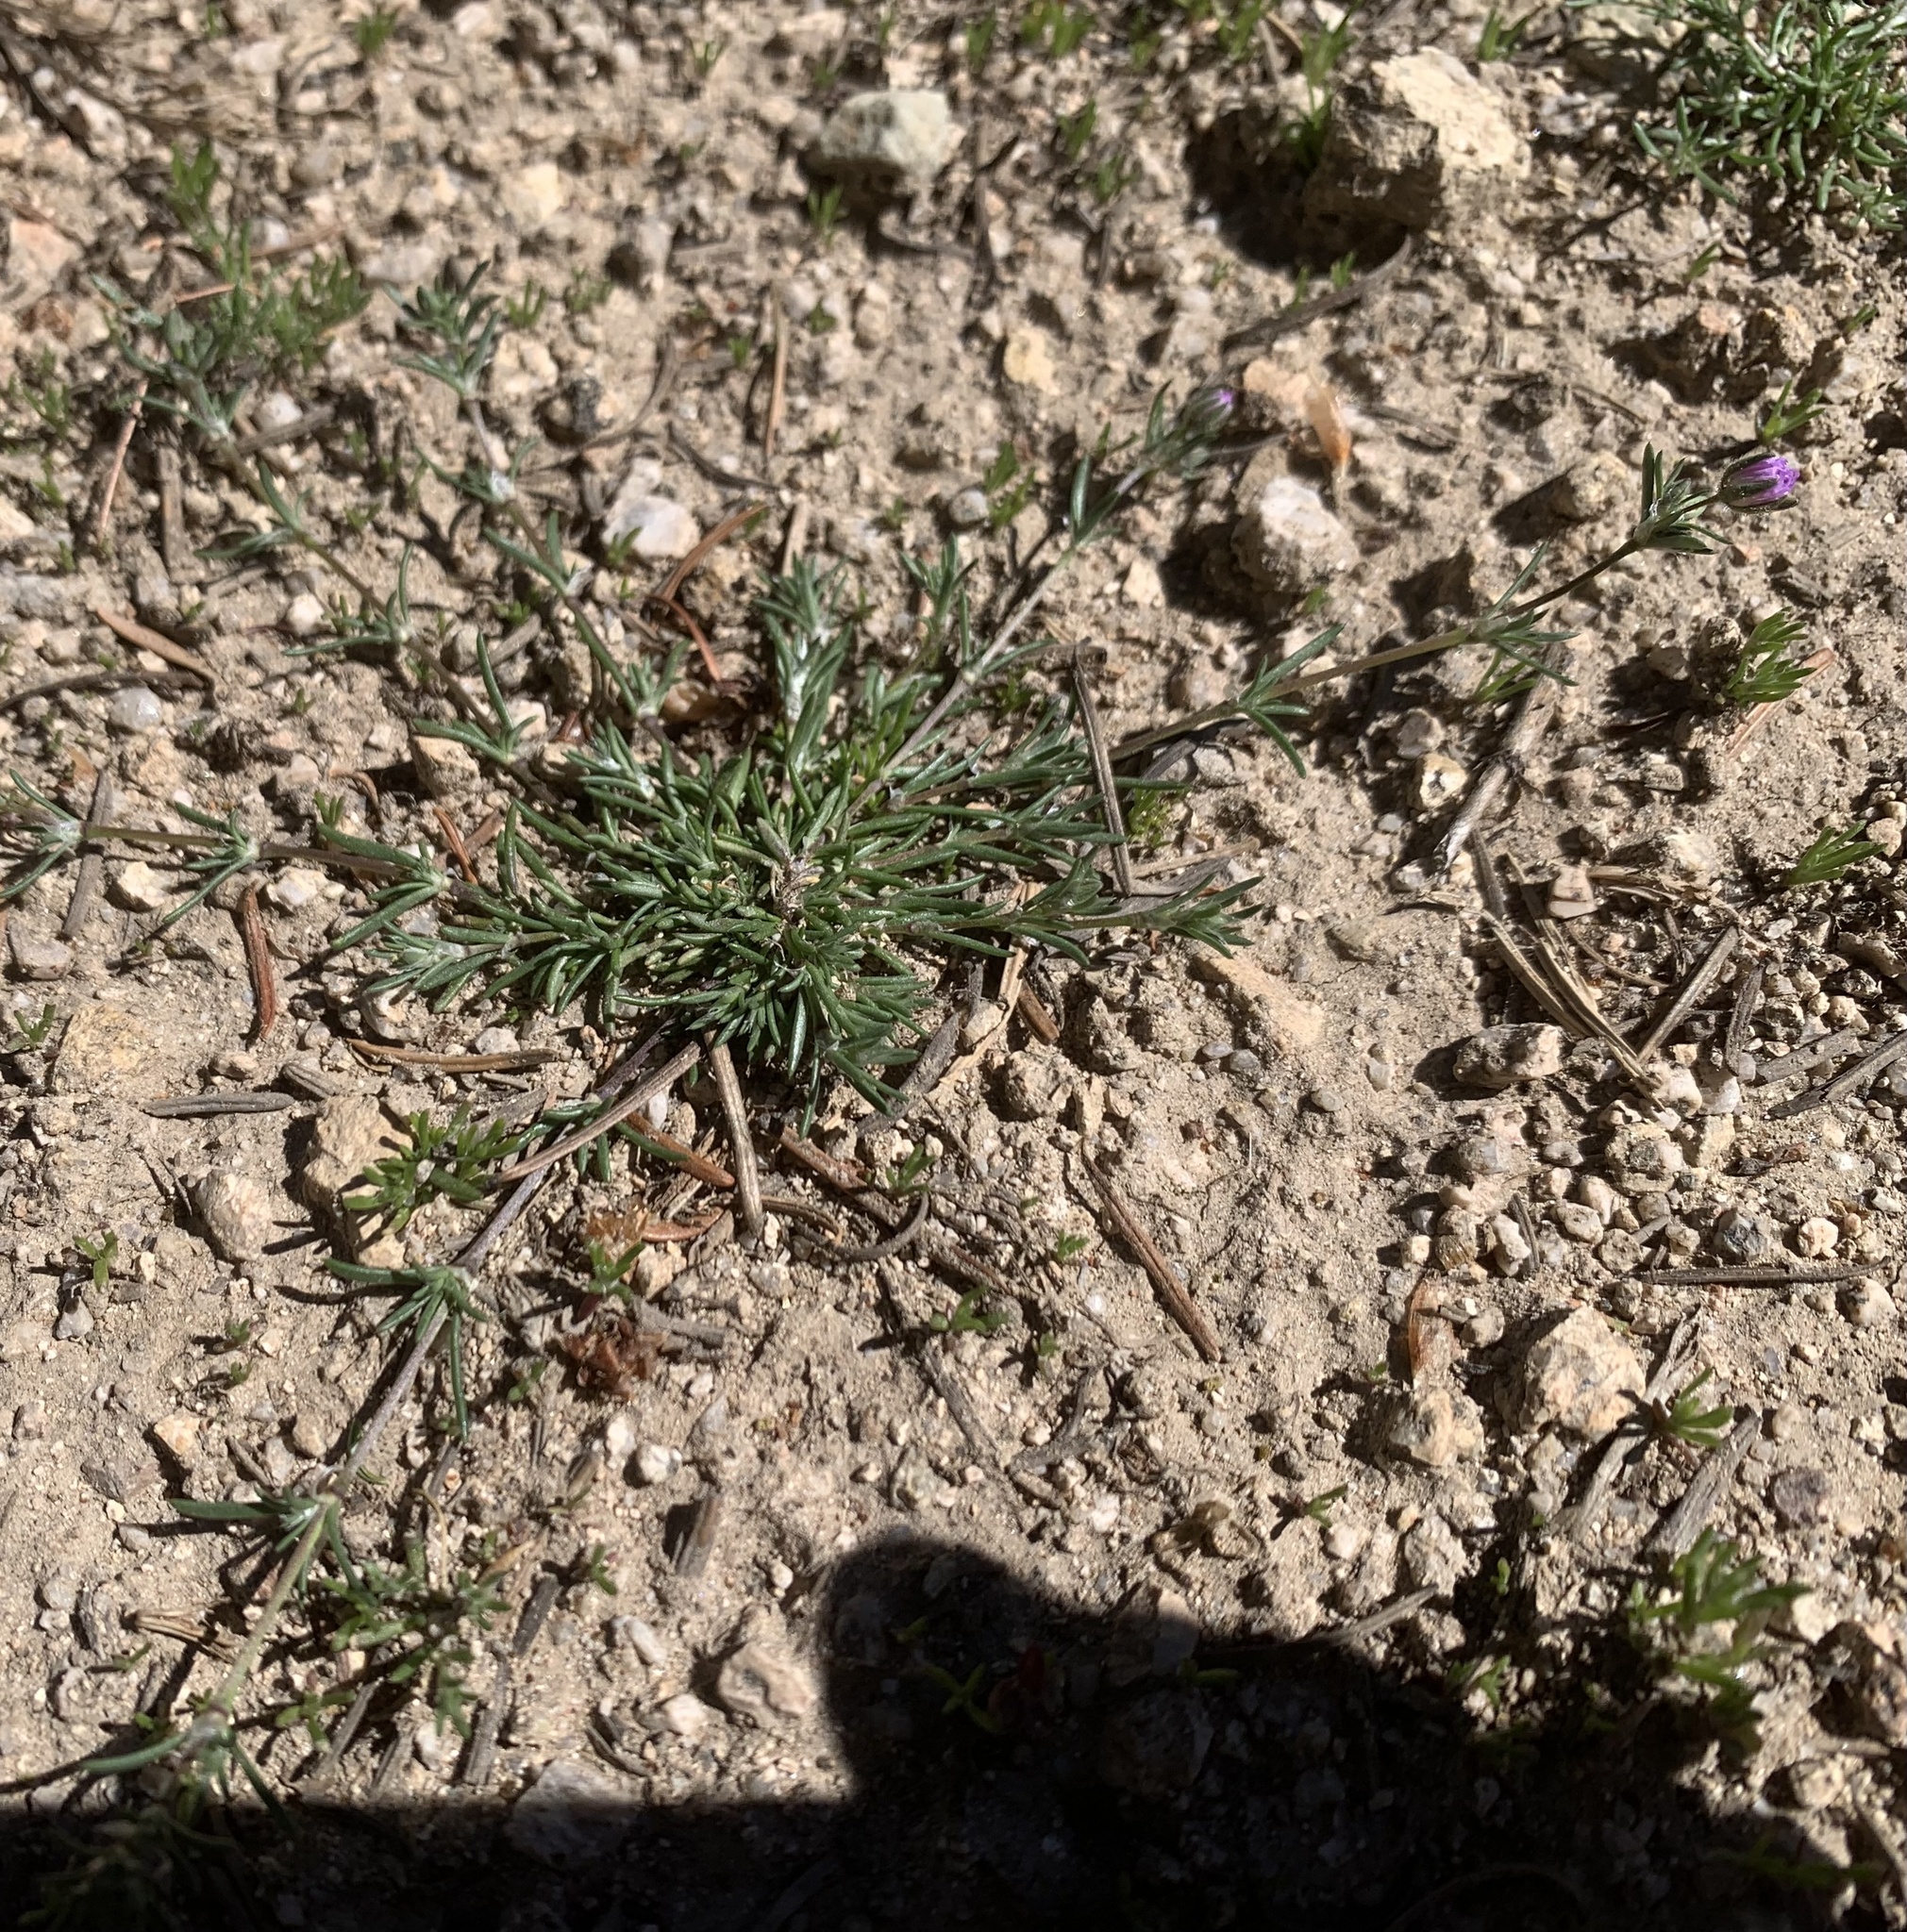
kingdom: Plantae
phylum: Tracheophyta
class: Magnoliopsida
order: Caryophyllales
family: Caryophyllaceae
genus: Spergularia
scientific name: Spergularia rubra
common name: Red sand-spurrey
